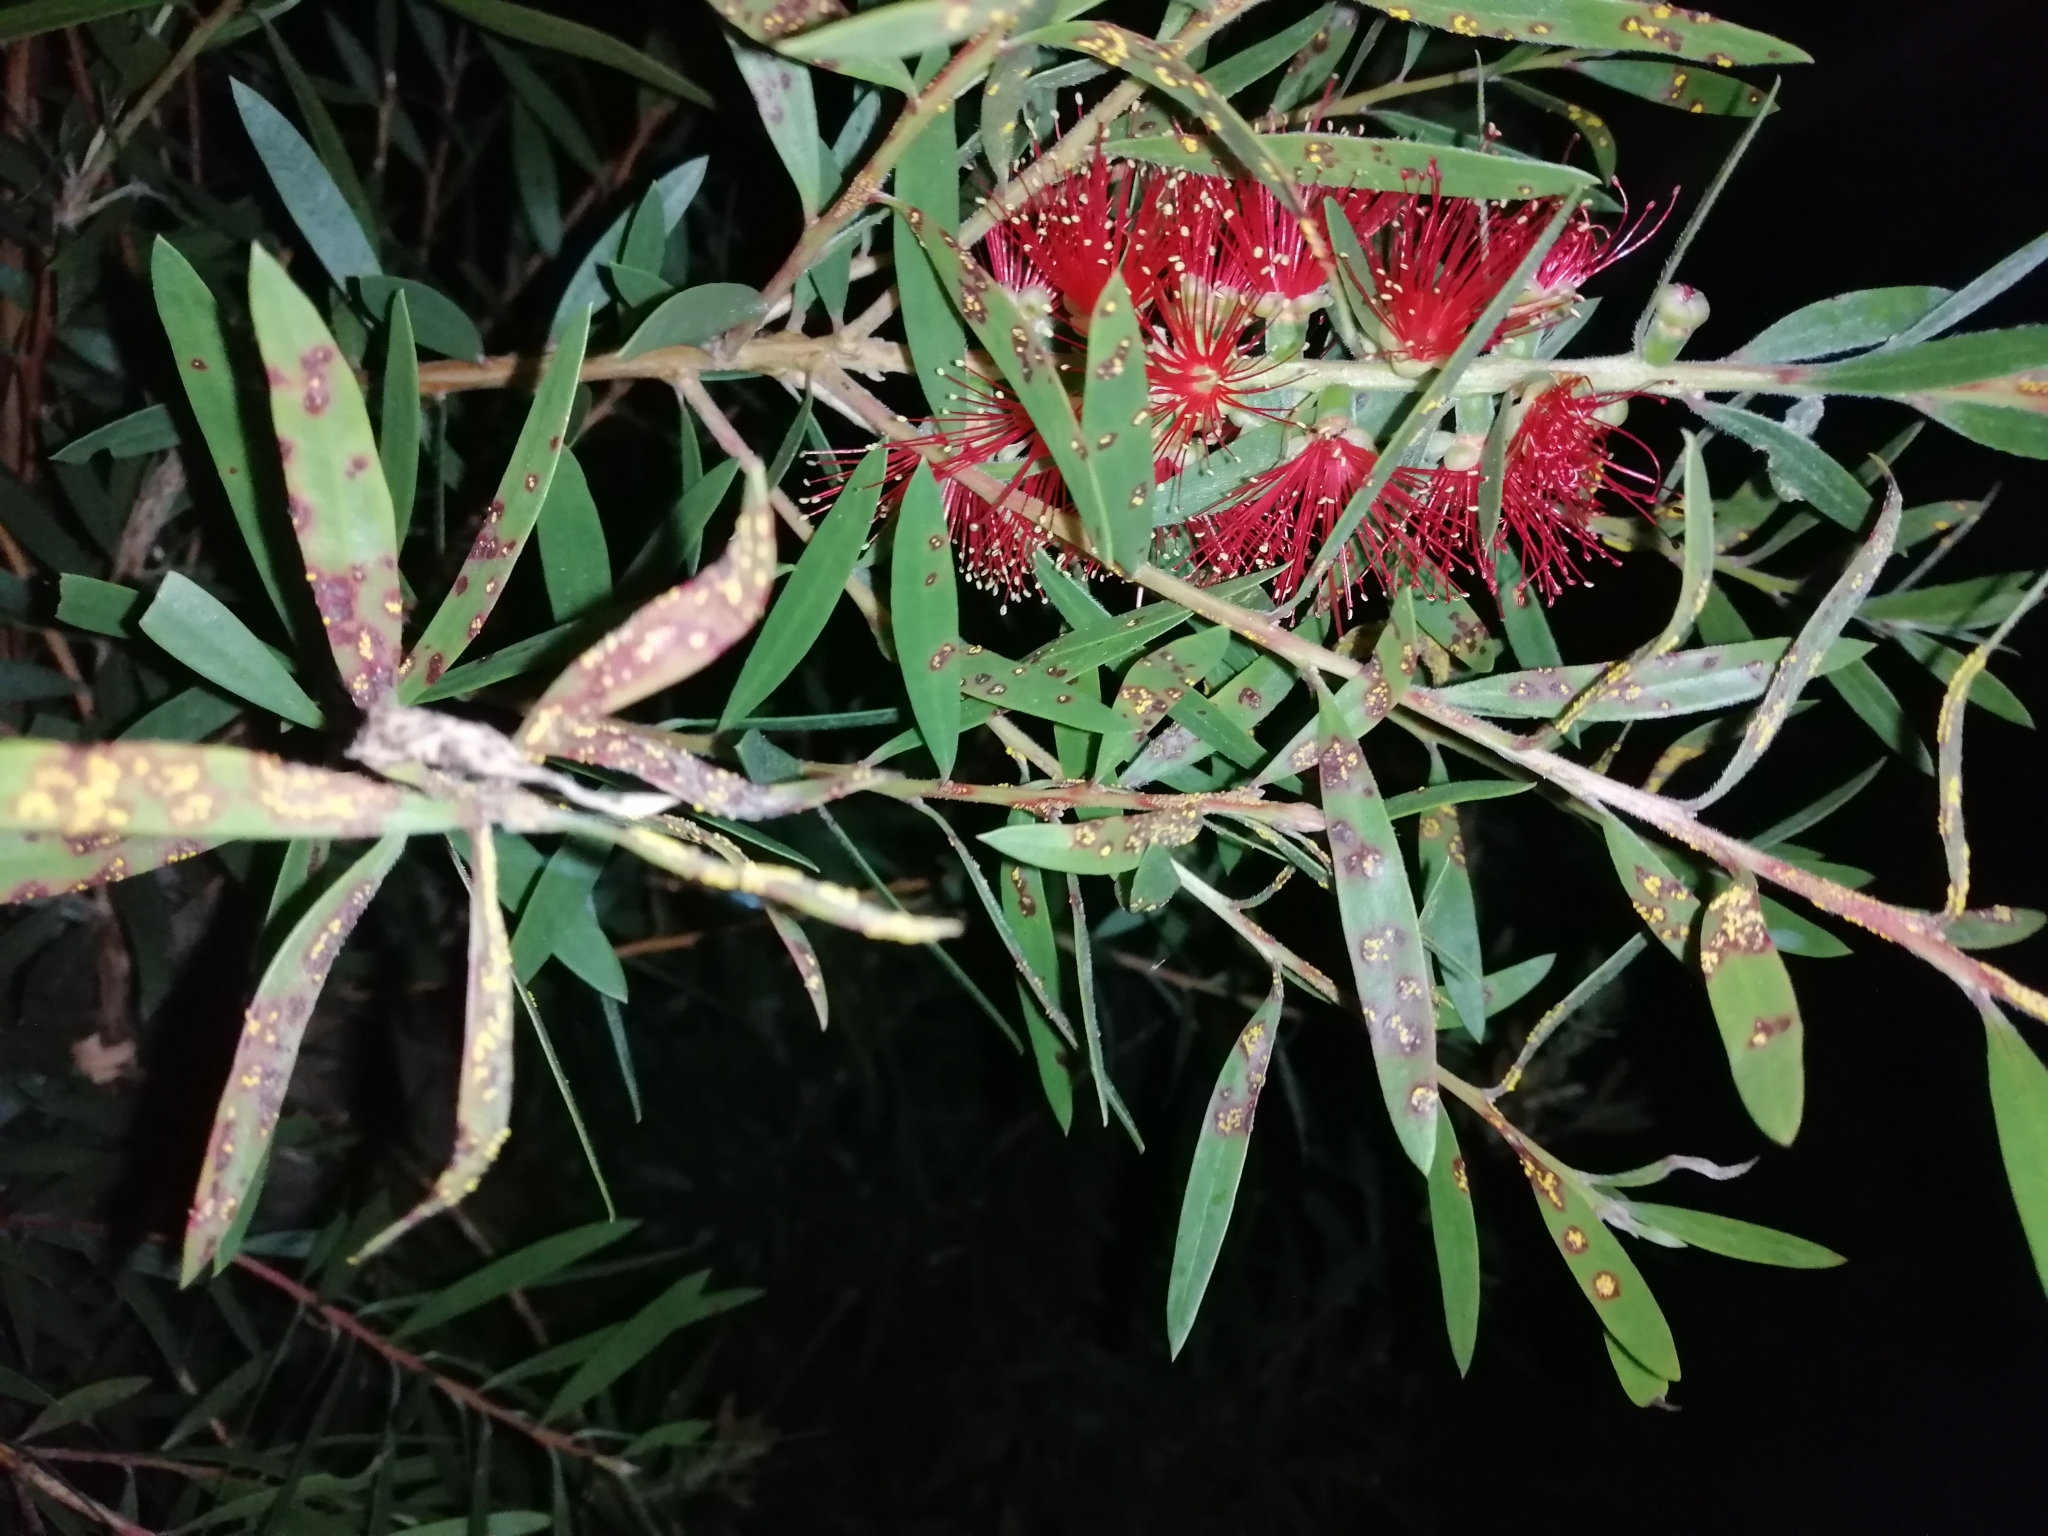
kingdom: Fungi
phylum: Basidiomycota
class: Pucciniomycetes
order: Pucciniales
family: Sphaerophragmiaceae
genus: Austropuccinia
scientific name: Austropuccinia psidii
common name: Myrtle rust
